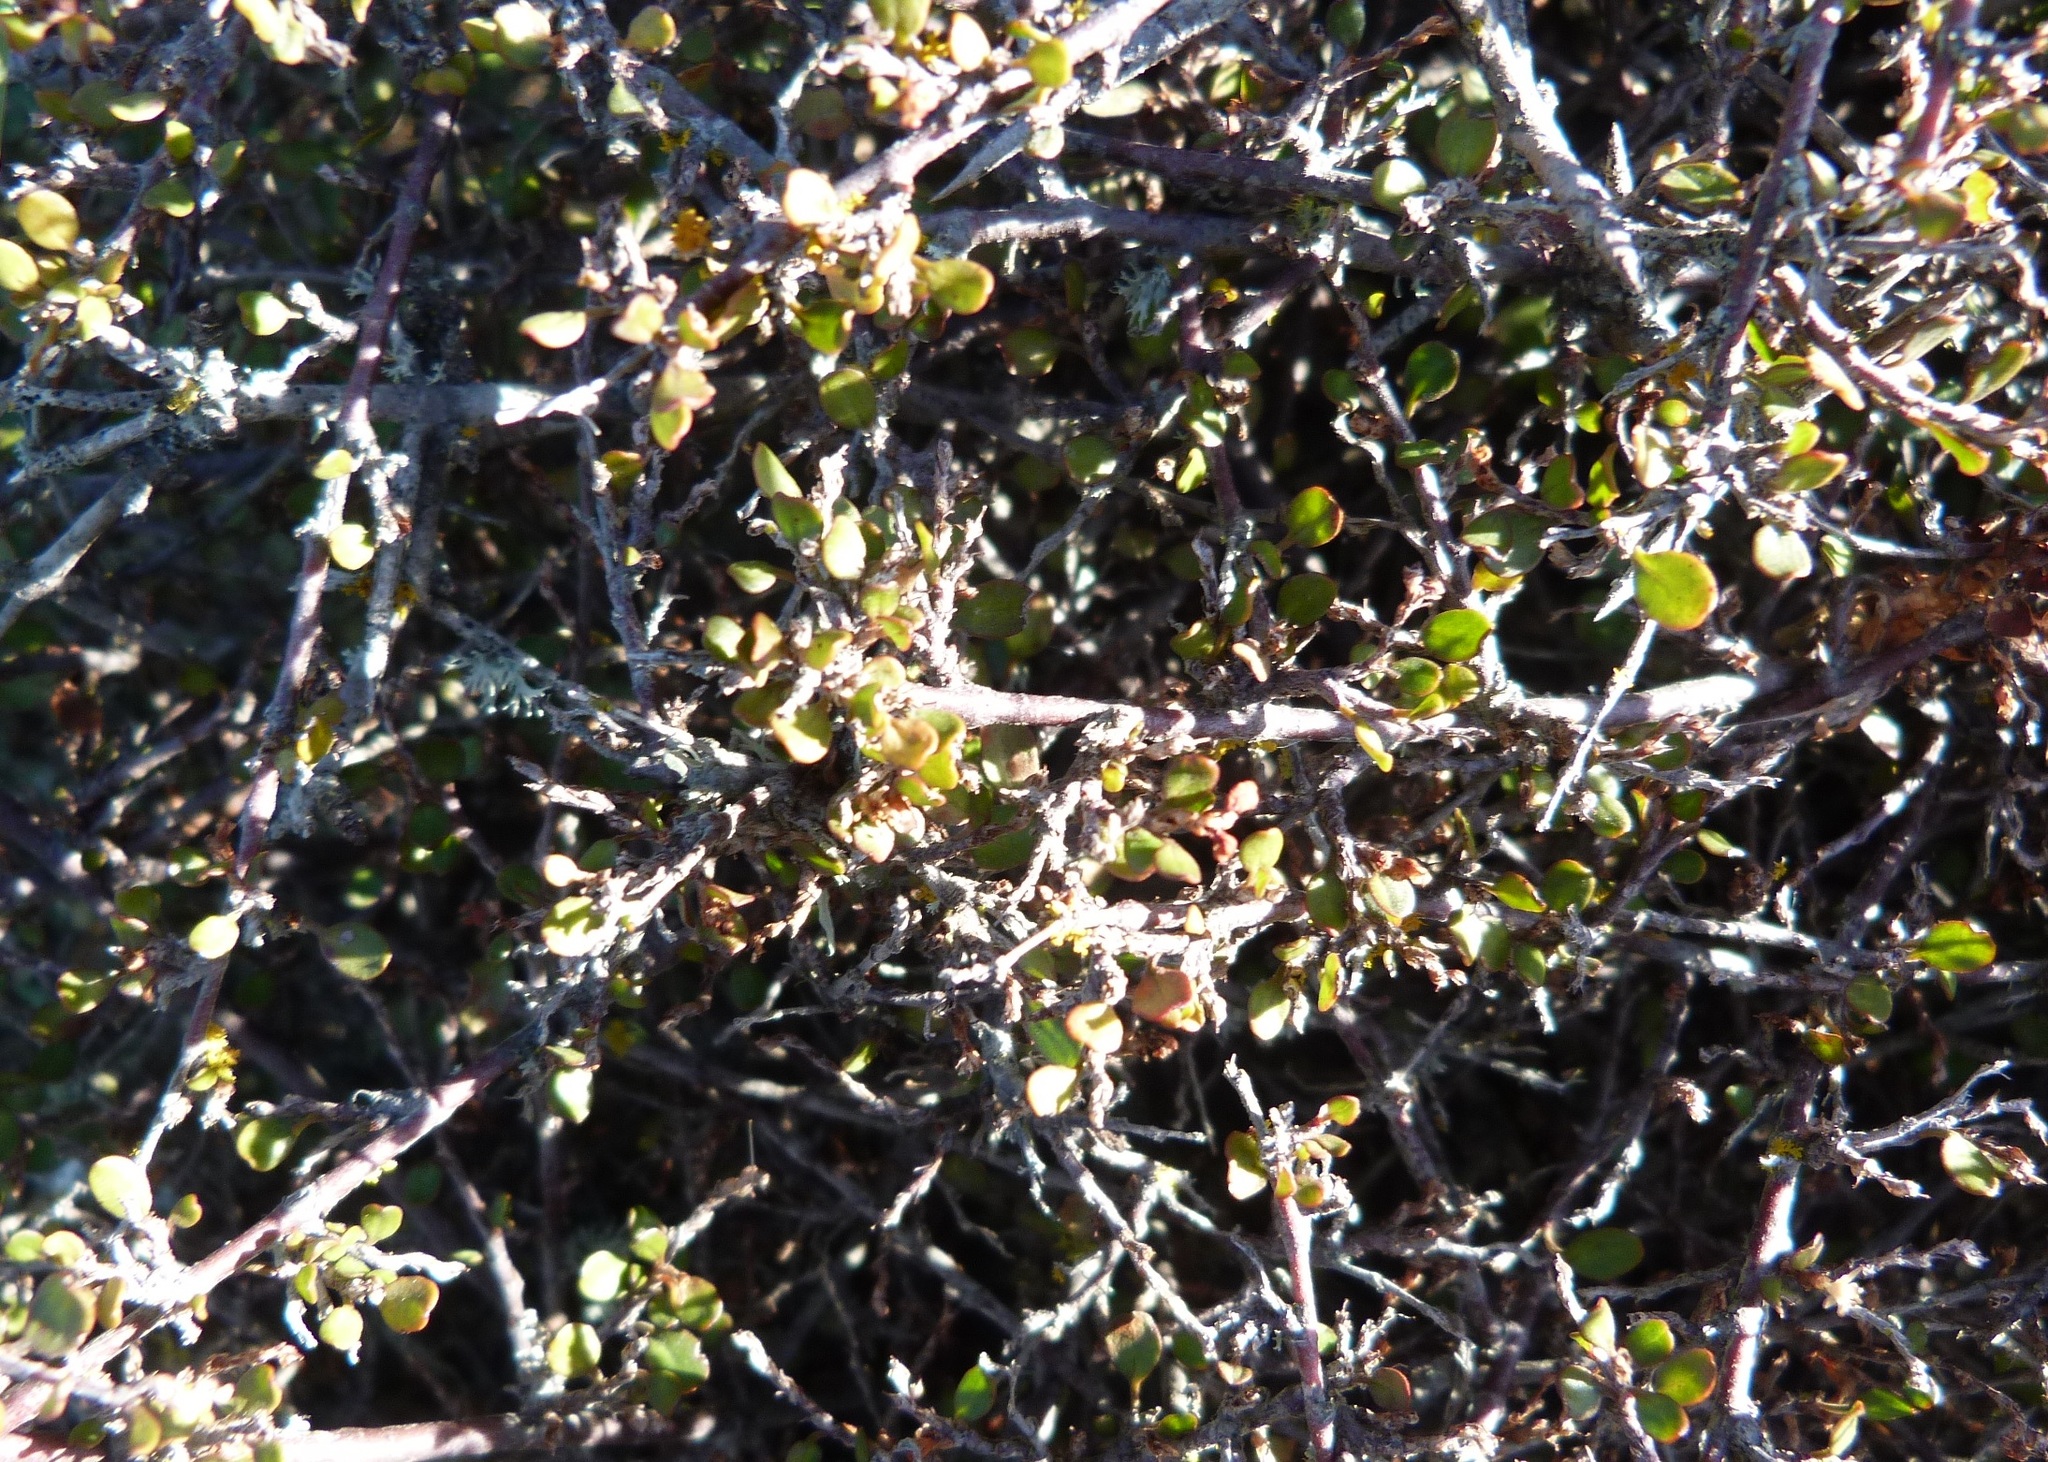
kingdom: Plantae
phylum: Tracheophyta
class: Magnoliopsida
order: Caryophyllales
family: Polygonaceae
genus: Muehlenbeckia
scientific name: Muehlenbeckia
